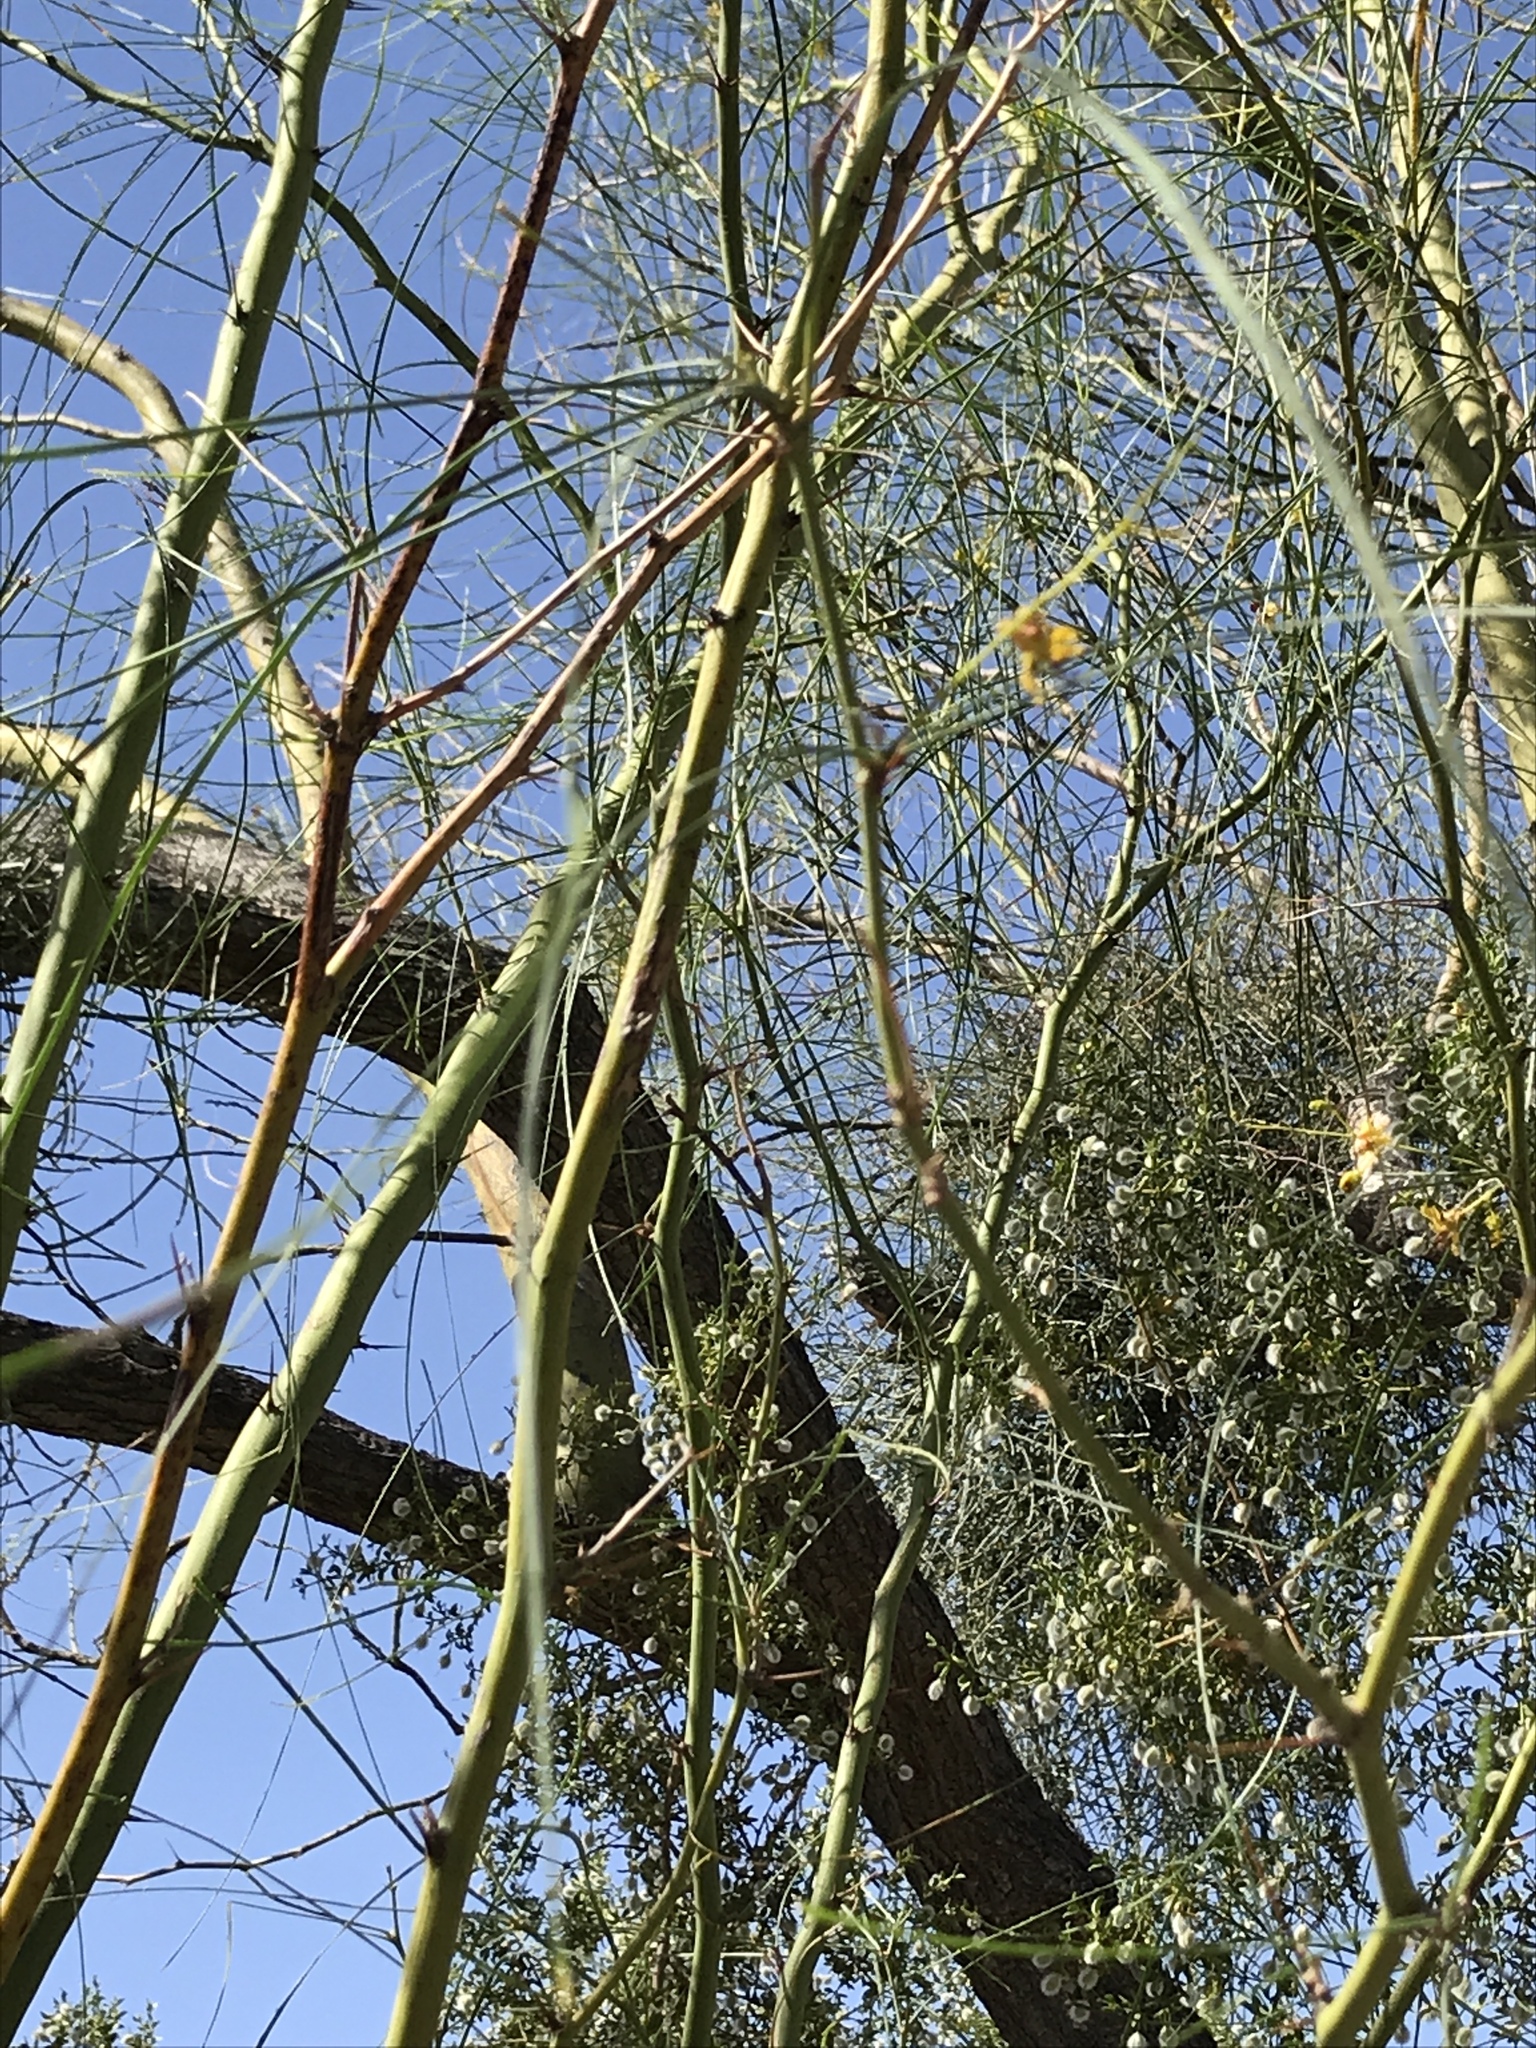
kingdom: Plantae
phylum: Tracheophyta
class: Magnoliopsida
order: Fabales
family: Fabaceae
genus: Parkinsonia
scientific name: Parkinsonia aculeata
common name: Jerusalem thorn
